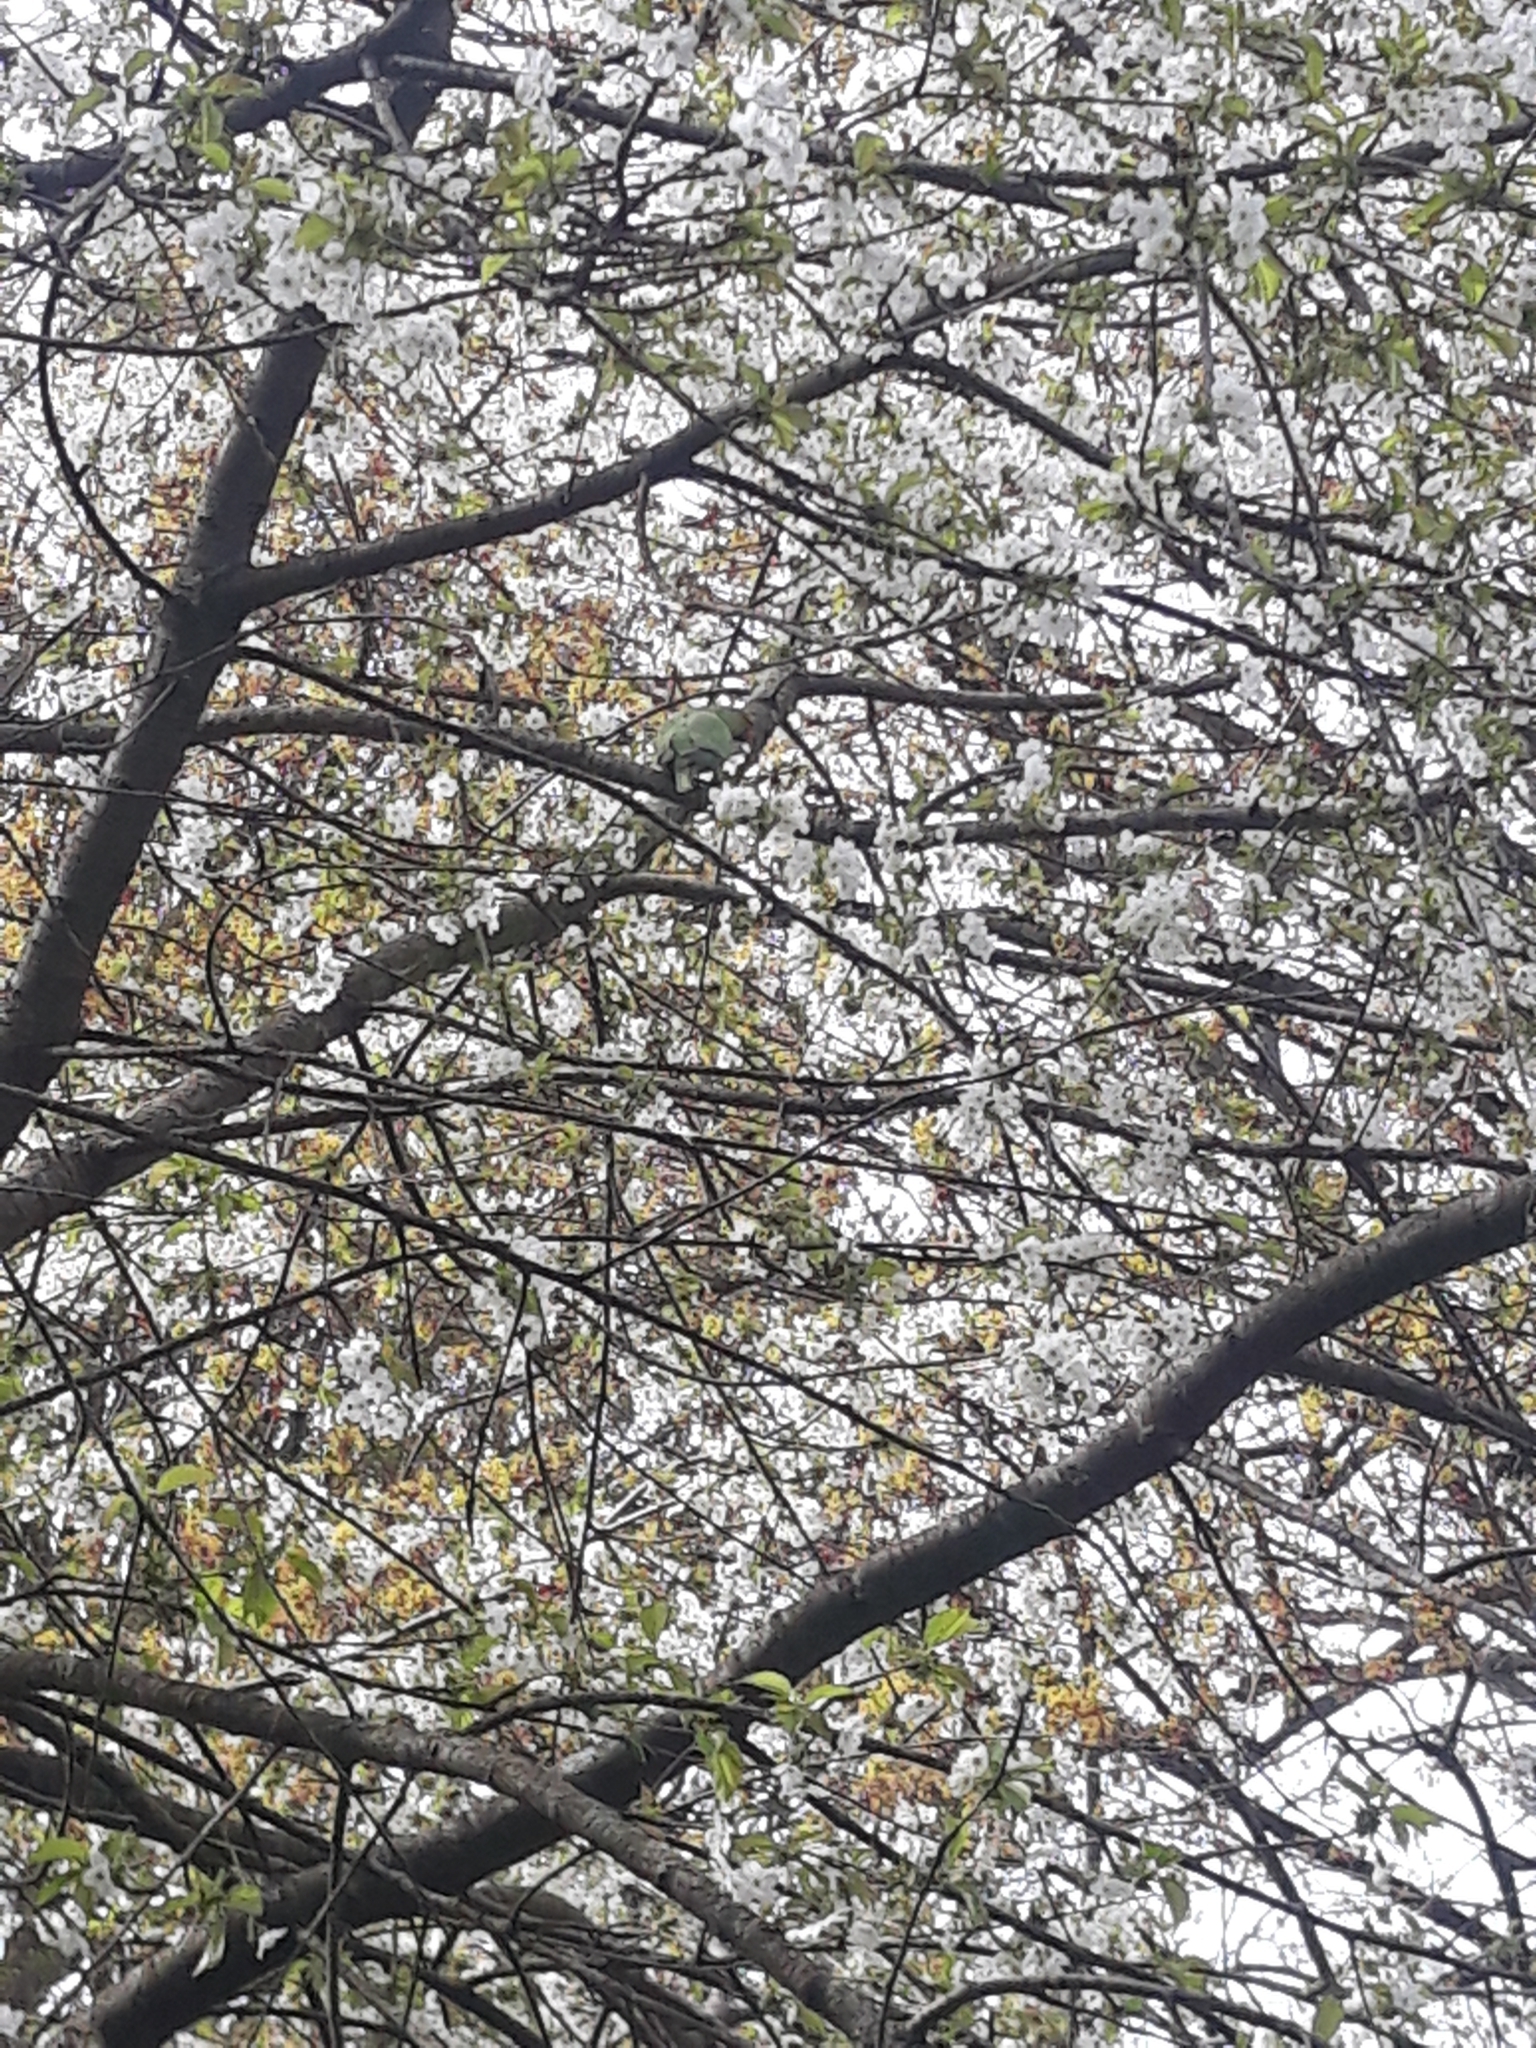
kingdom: Animalia
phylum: Chordata
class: Aves
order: Psittaciformes
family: Psittacidae
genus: Psittacula
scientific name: Psittacula krameri
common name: Rose-ringed parakeet
